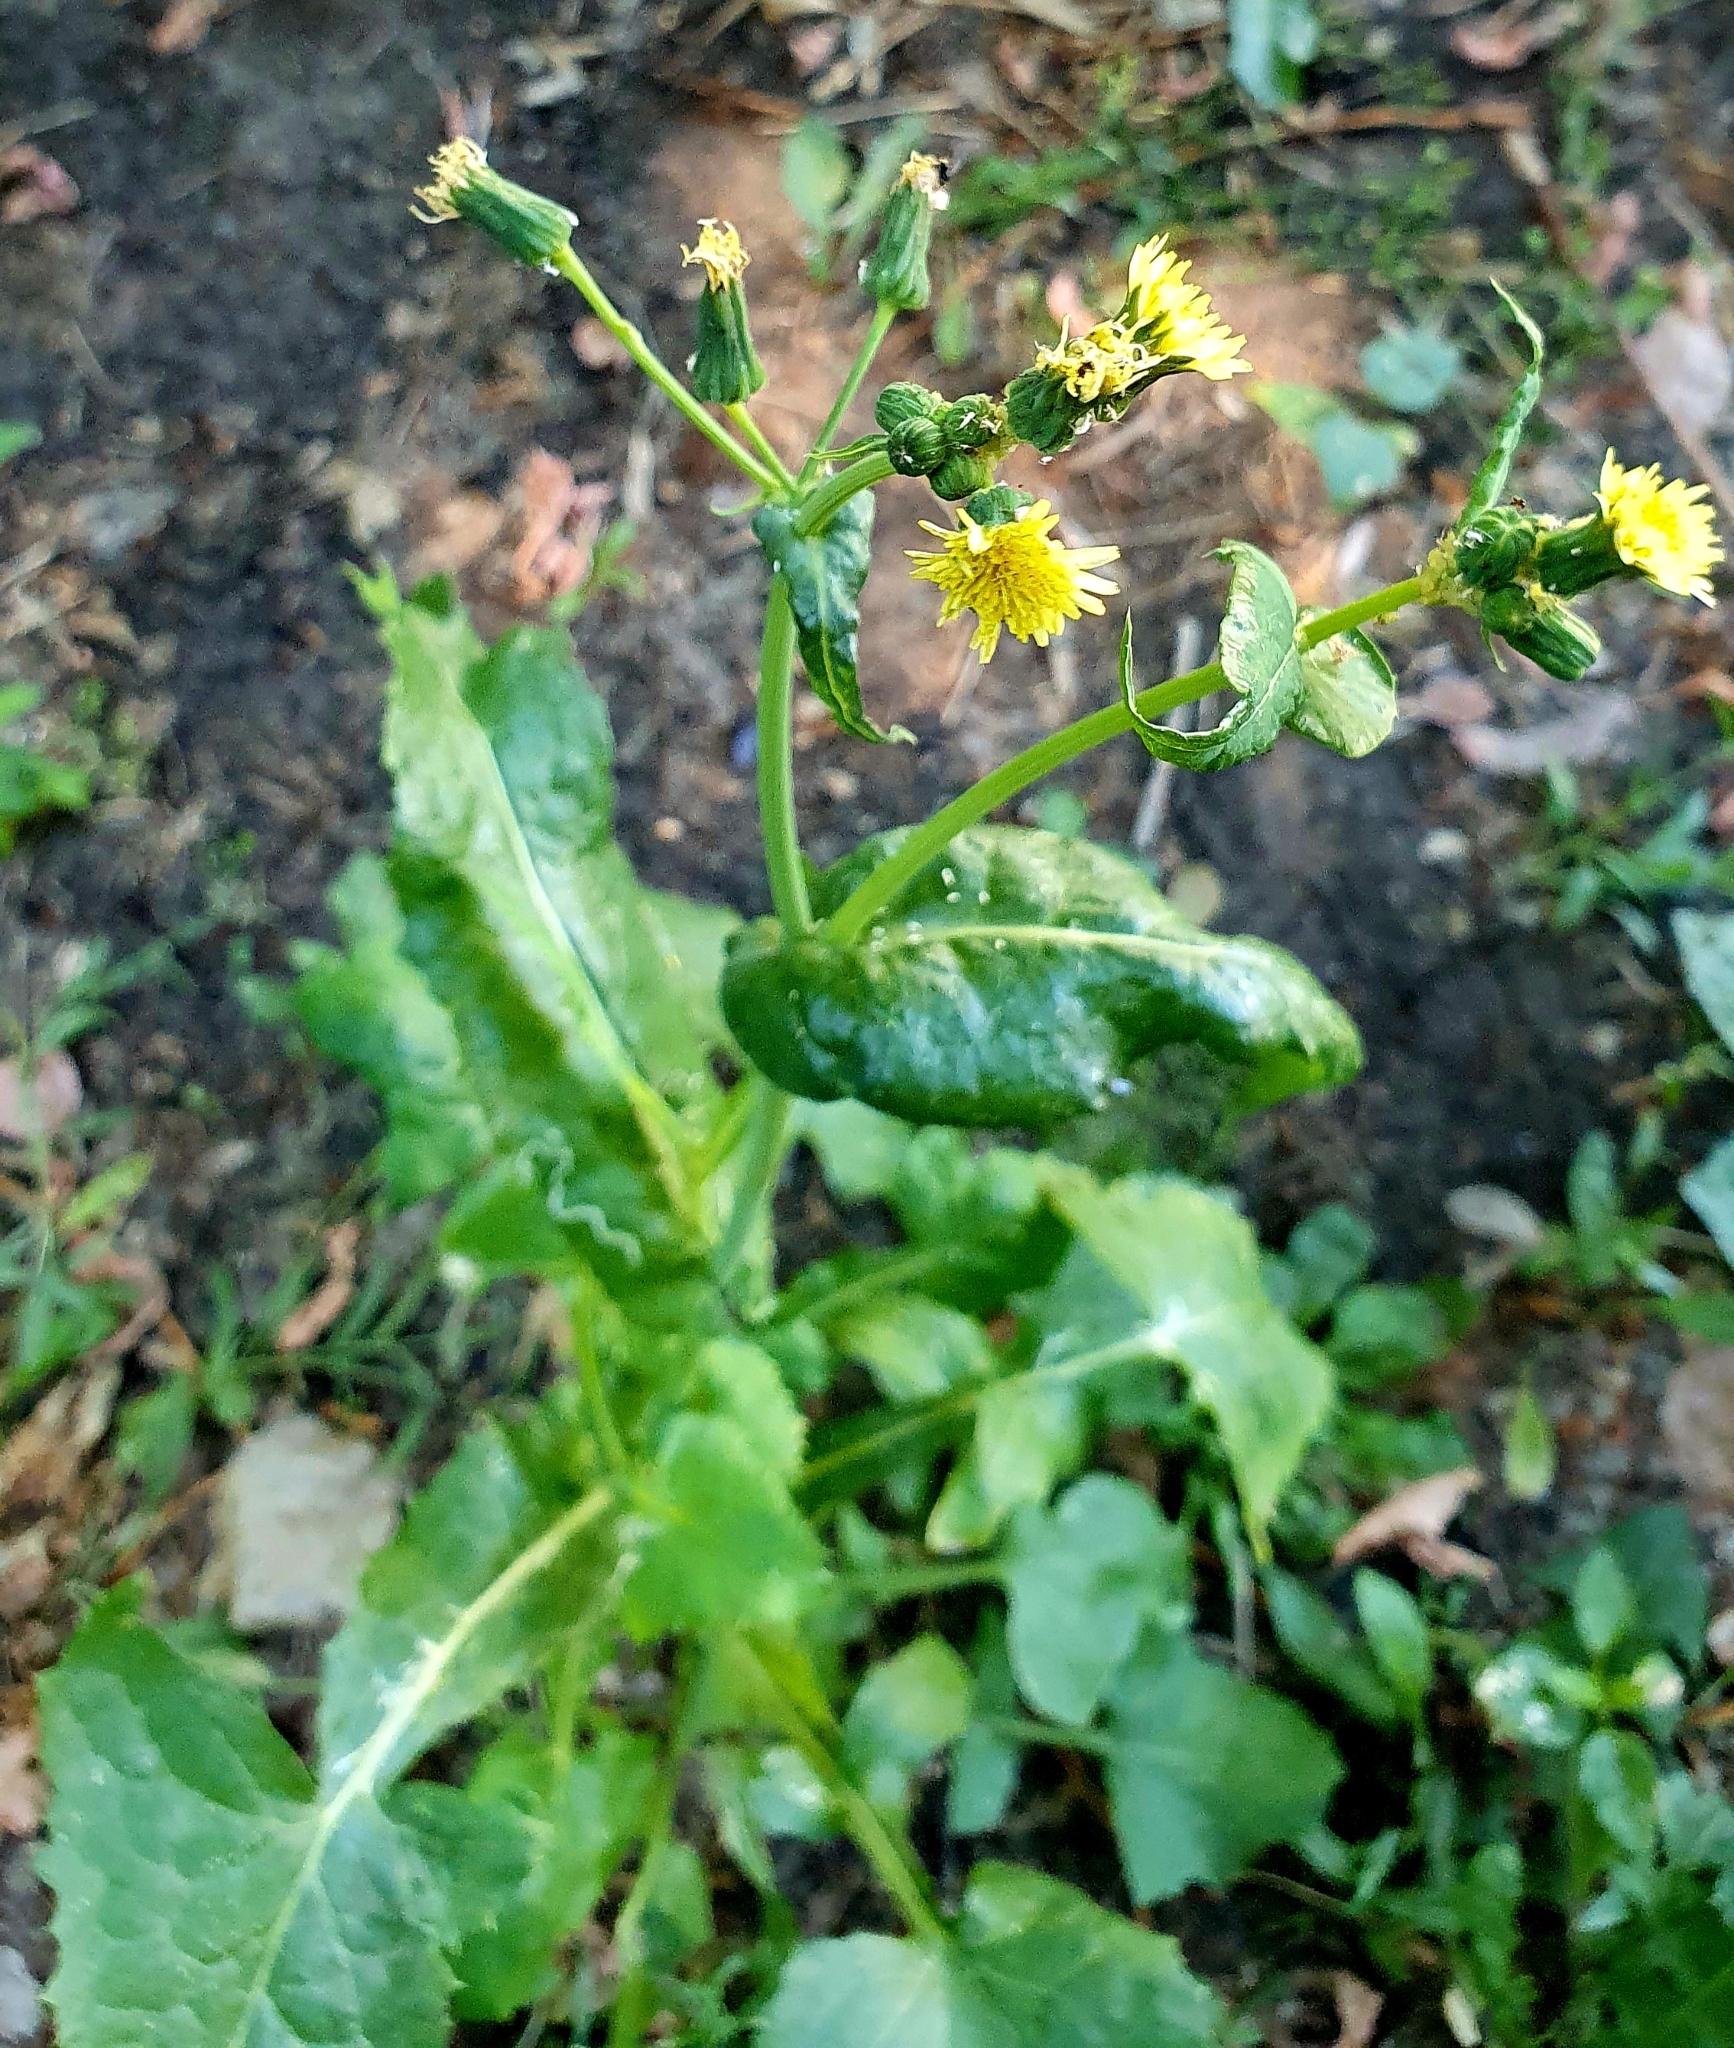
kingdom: Plantae
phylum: Tracheophyta
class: Magnoliopsida
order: Asterales
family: Asteraceae
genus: Sonchus
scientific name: Sonchus oleraceus
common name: Common sowthistle
